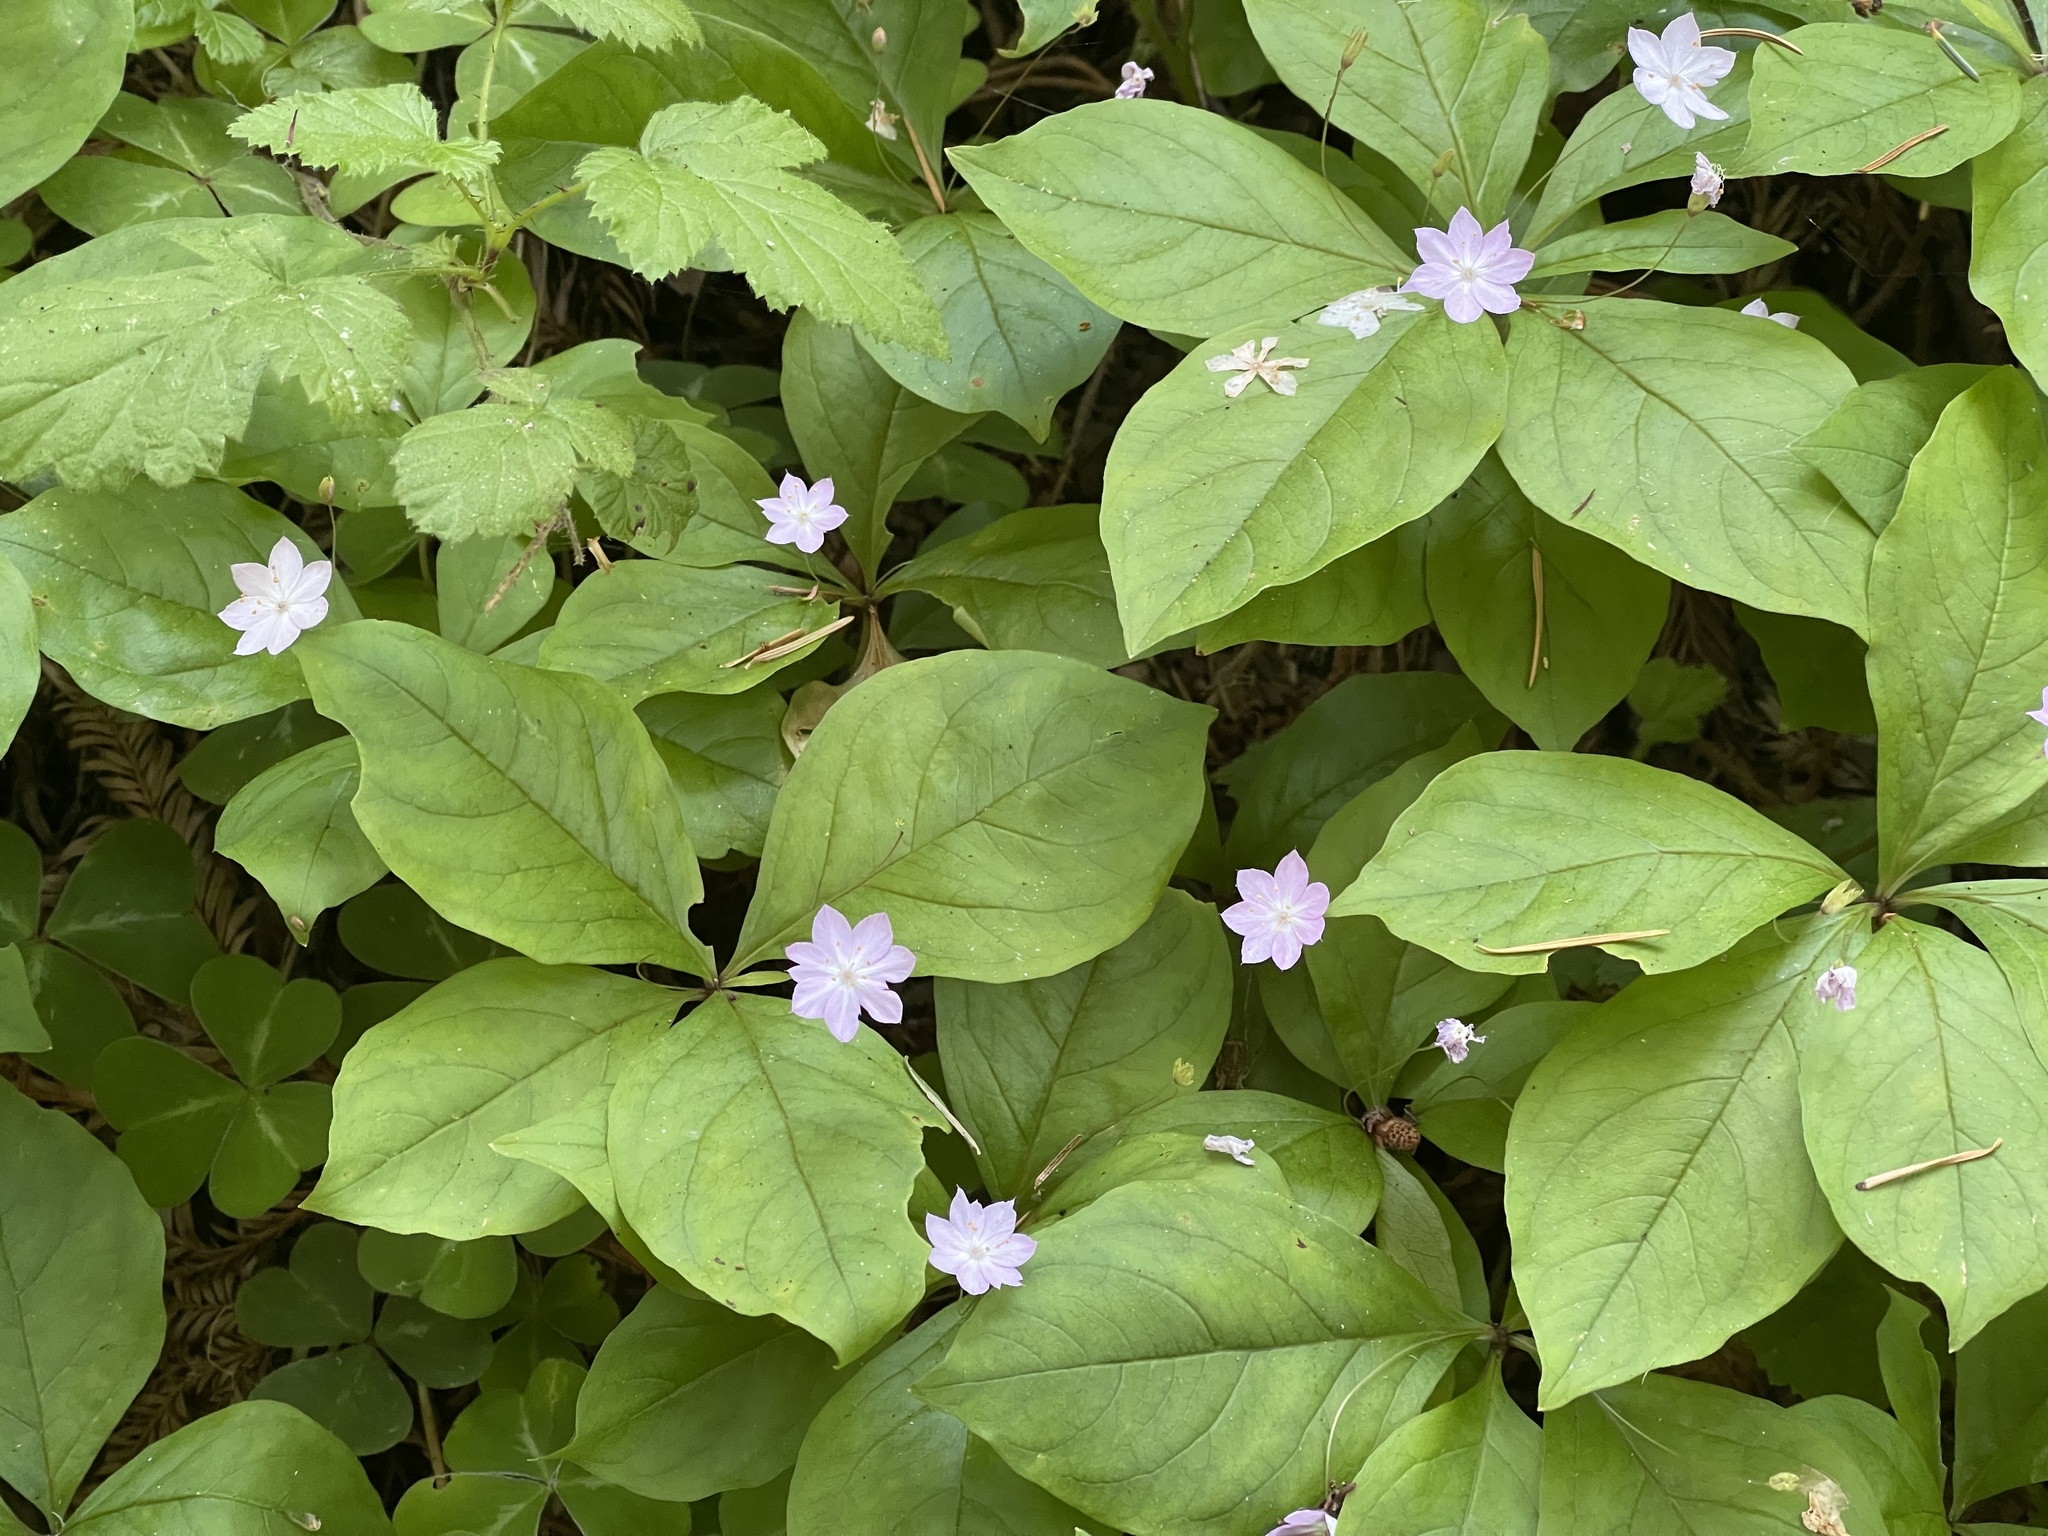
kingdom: Plantae
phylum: Tracheophyta
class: Magnoliopsida
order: Ericales
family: Primulaceae
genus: Lysimachia
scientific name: Lysimachia latifolia
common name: Pacific starflower
